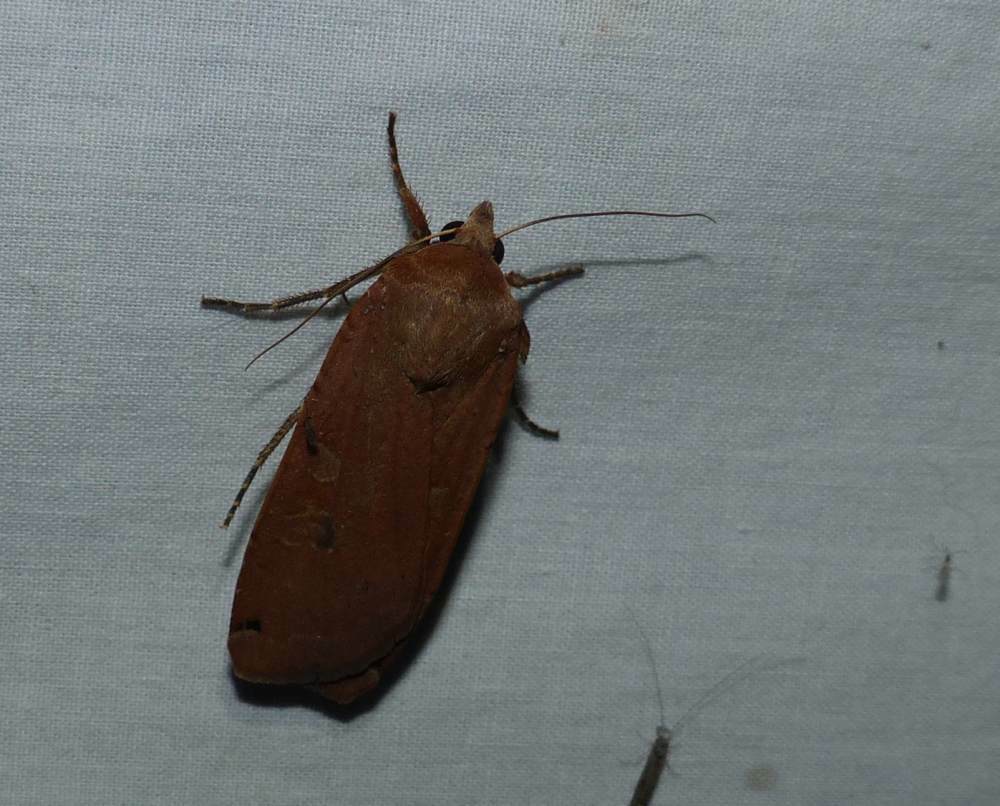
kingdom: Animalia
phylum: Arthropoda
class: Insecta
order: Lepidoptera
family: Noctuidae
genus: Noctua
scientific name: Noctua pronuba
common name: Large yellow underwing
